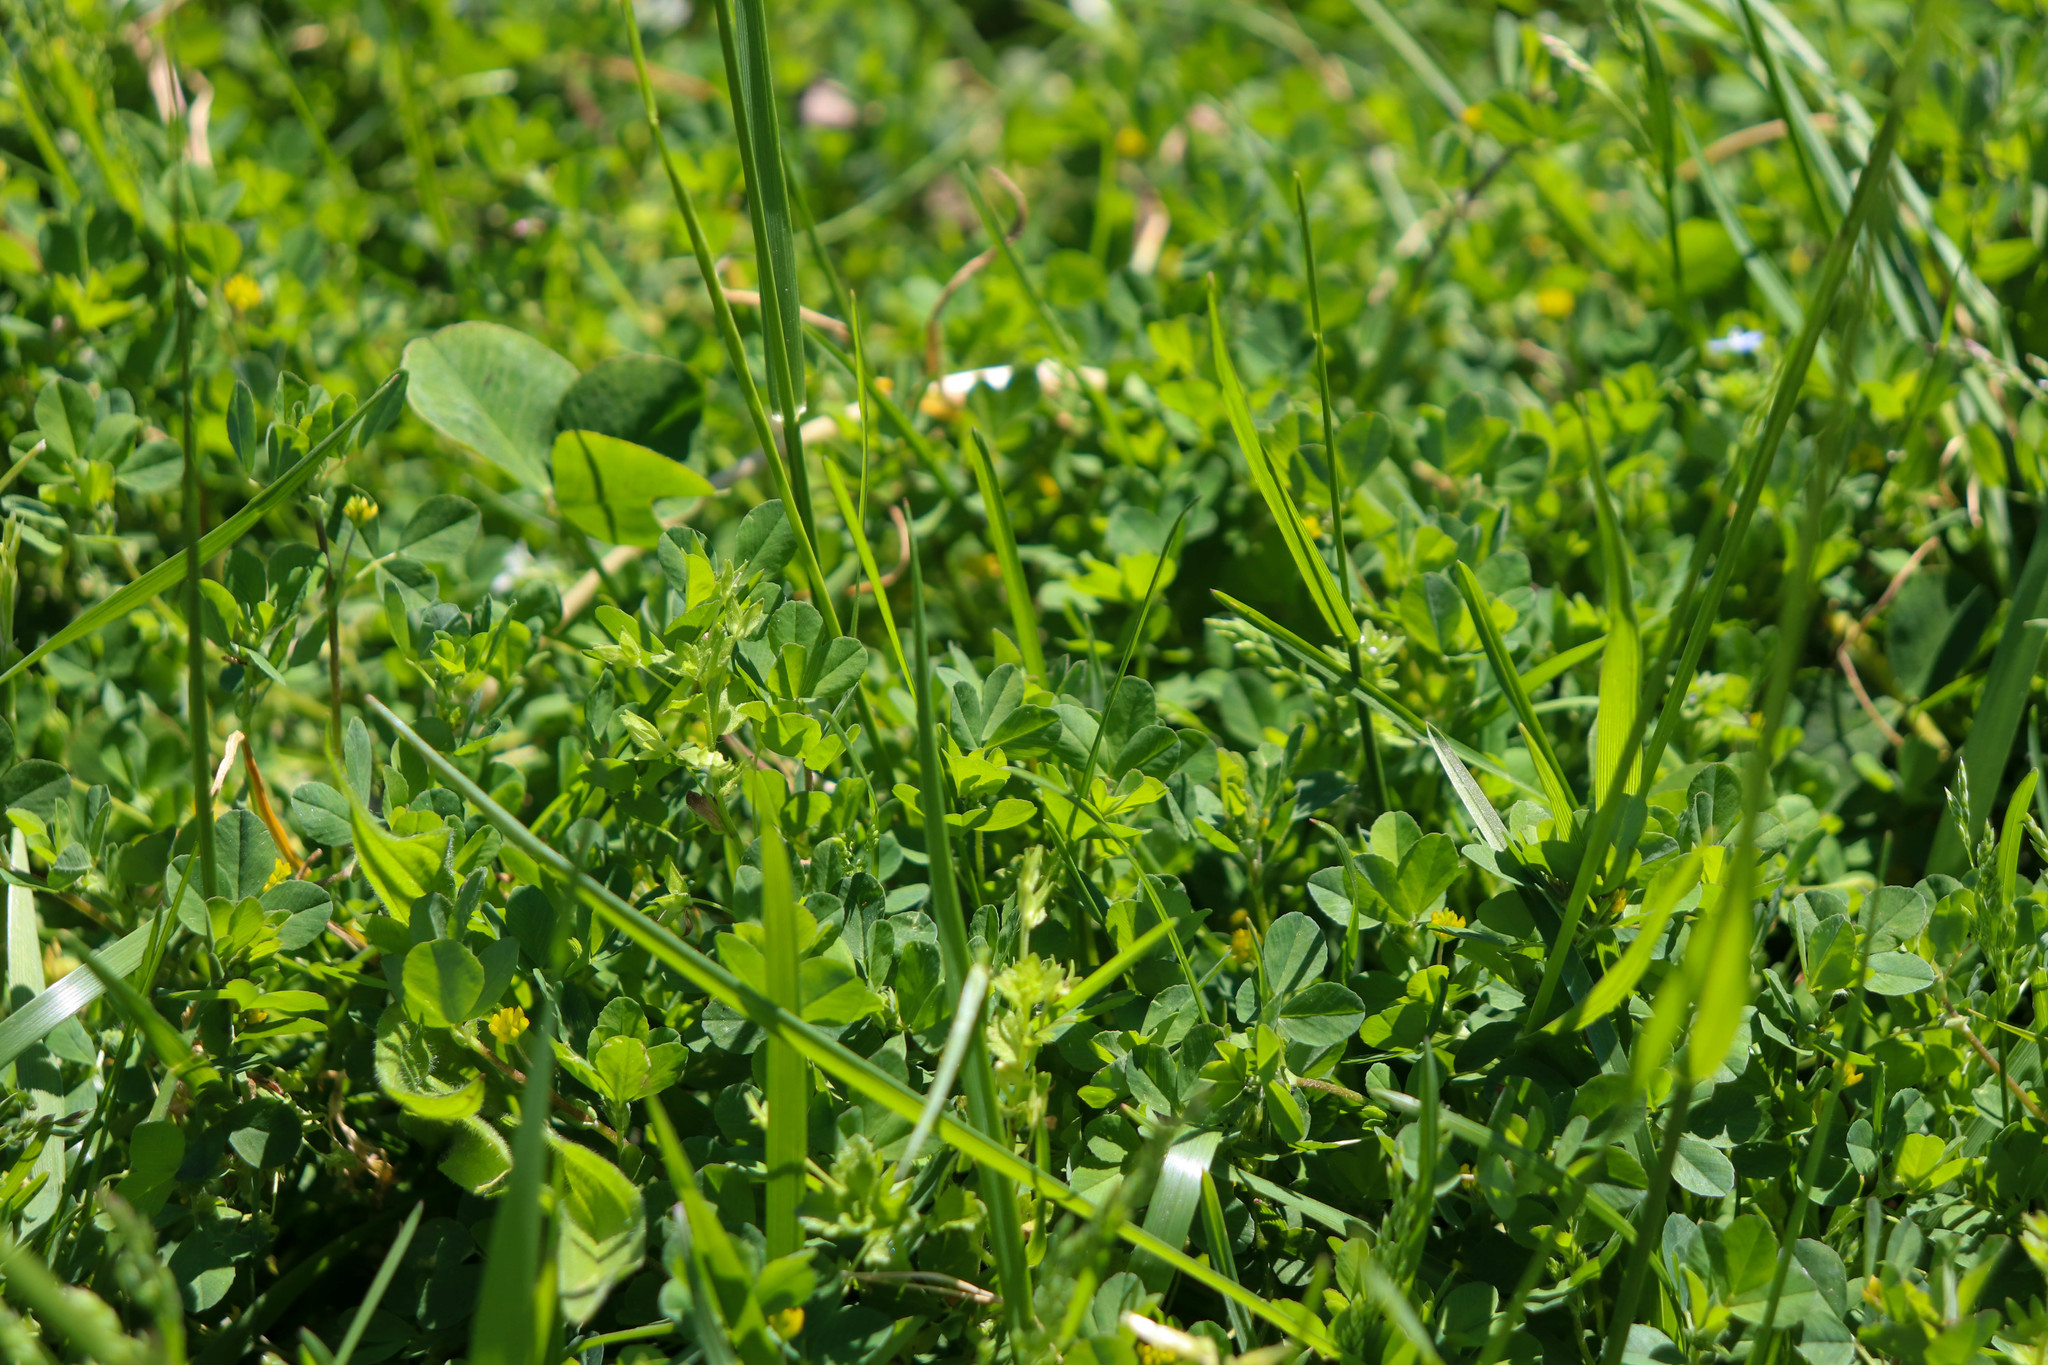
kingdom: Plantae
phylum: Tracheophyta
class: Magnoliopsida
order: Fabales
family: Fabaceae
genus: Trifolium
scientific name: Trifolium dubium
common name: Suckling clover
